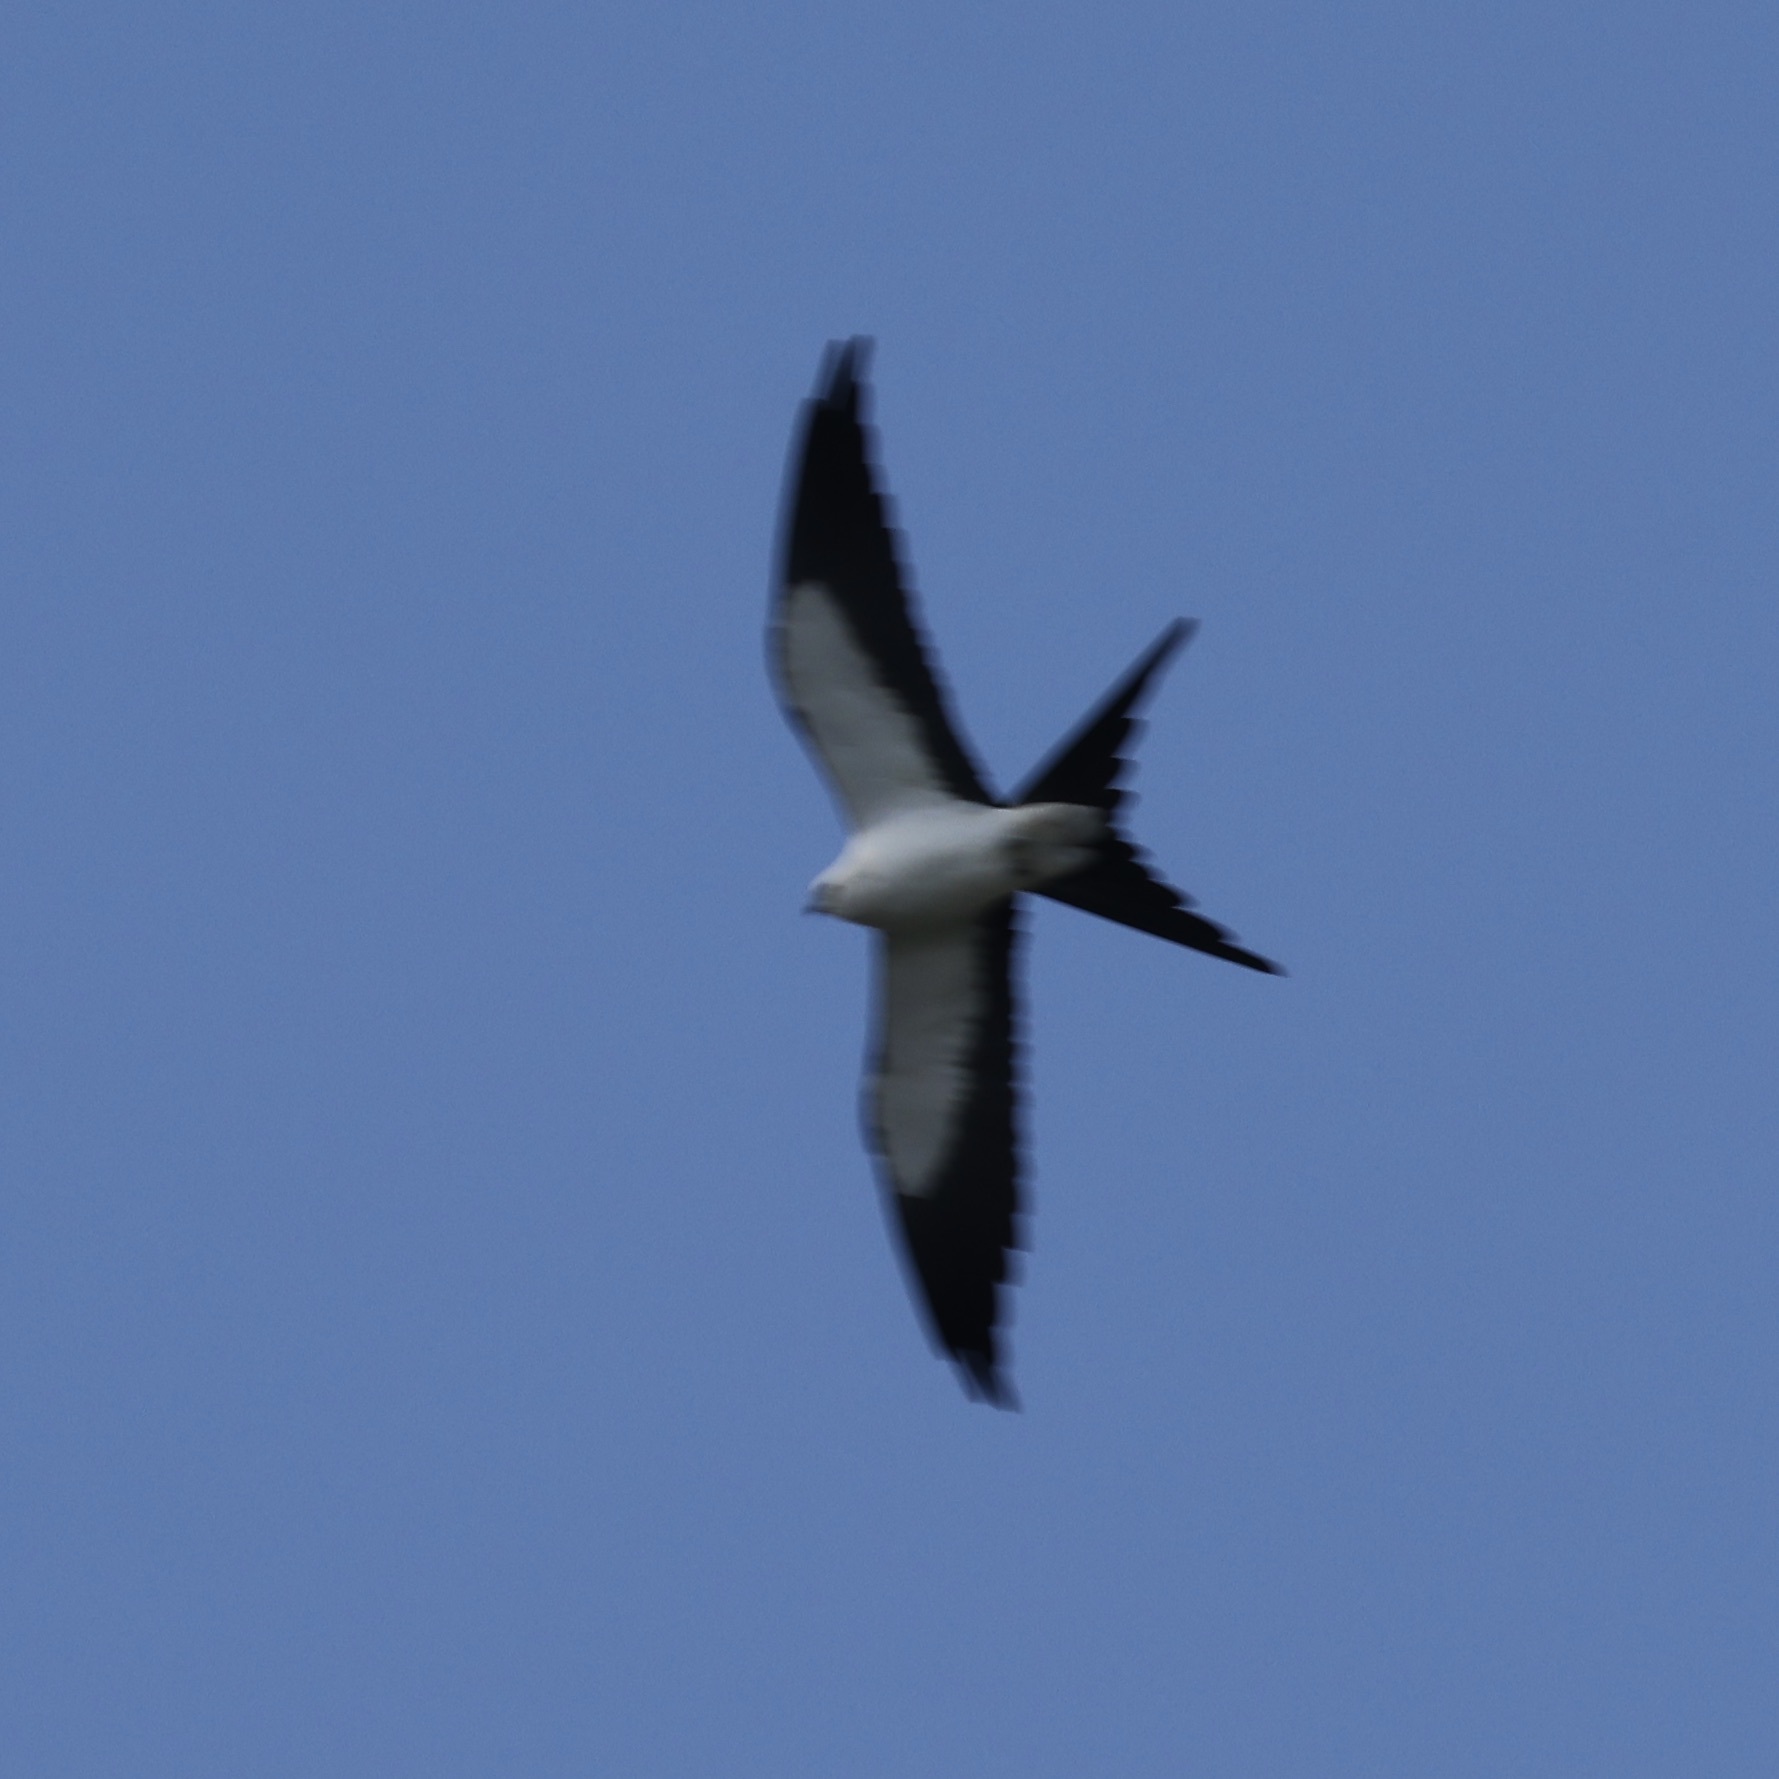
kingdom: Animalia
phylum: Chordata
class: Aves
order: Accipitriformes
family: Accipitridae
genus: Elanoides
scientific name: Elanoides forficatus
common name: Swallow-tailed kite
